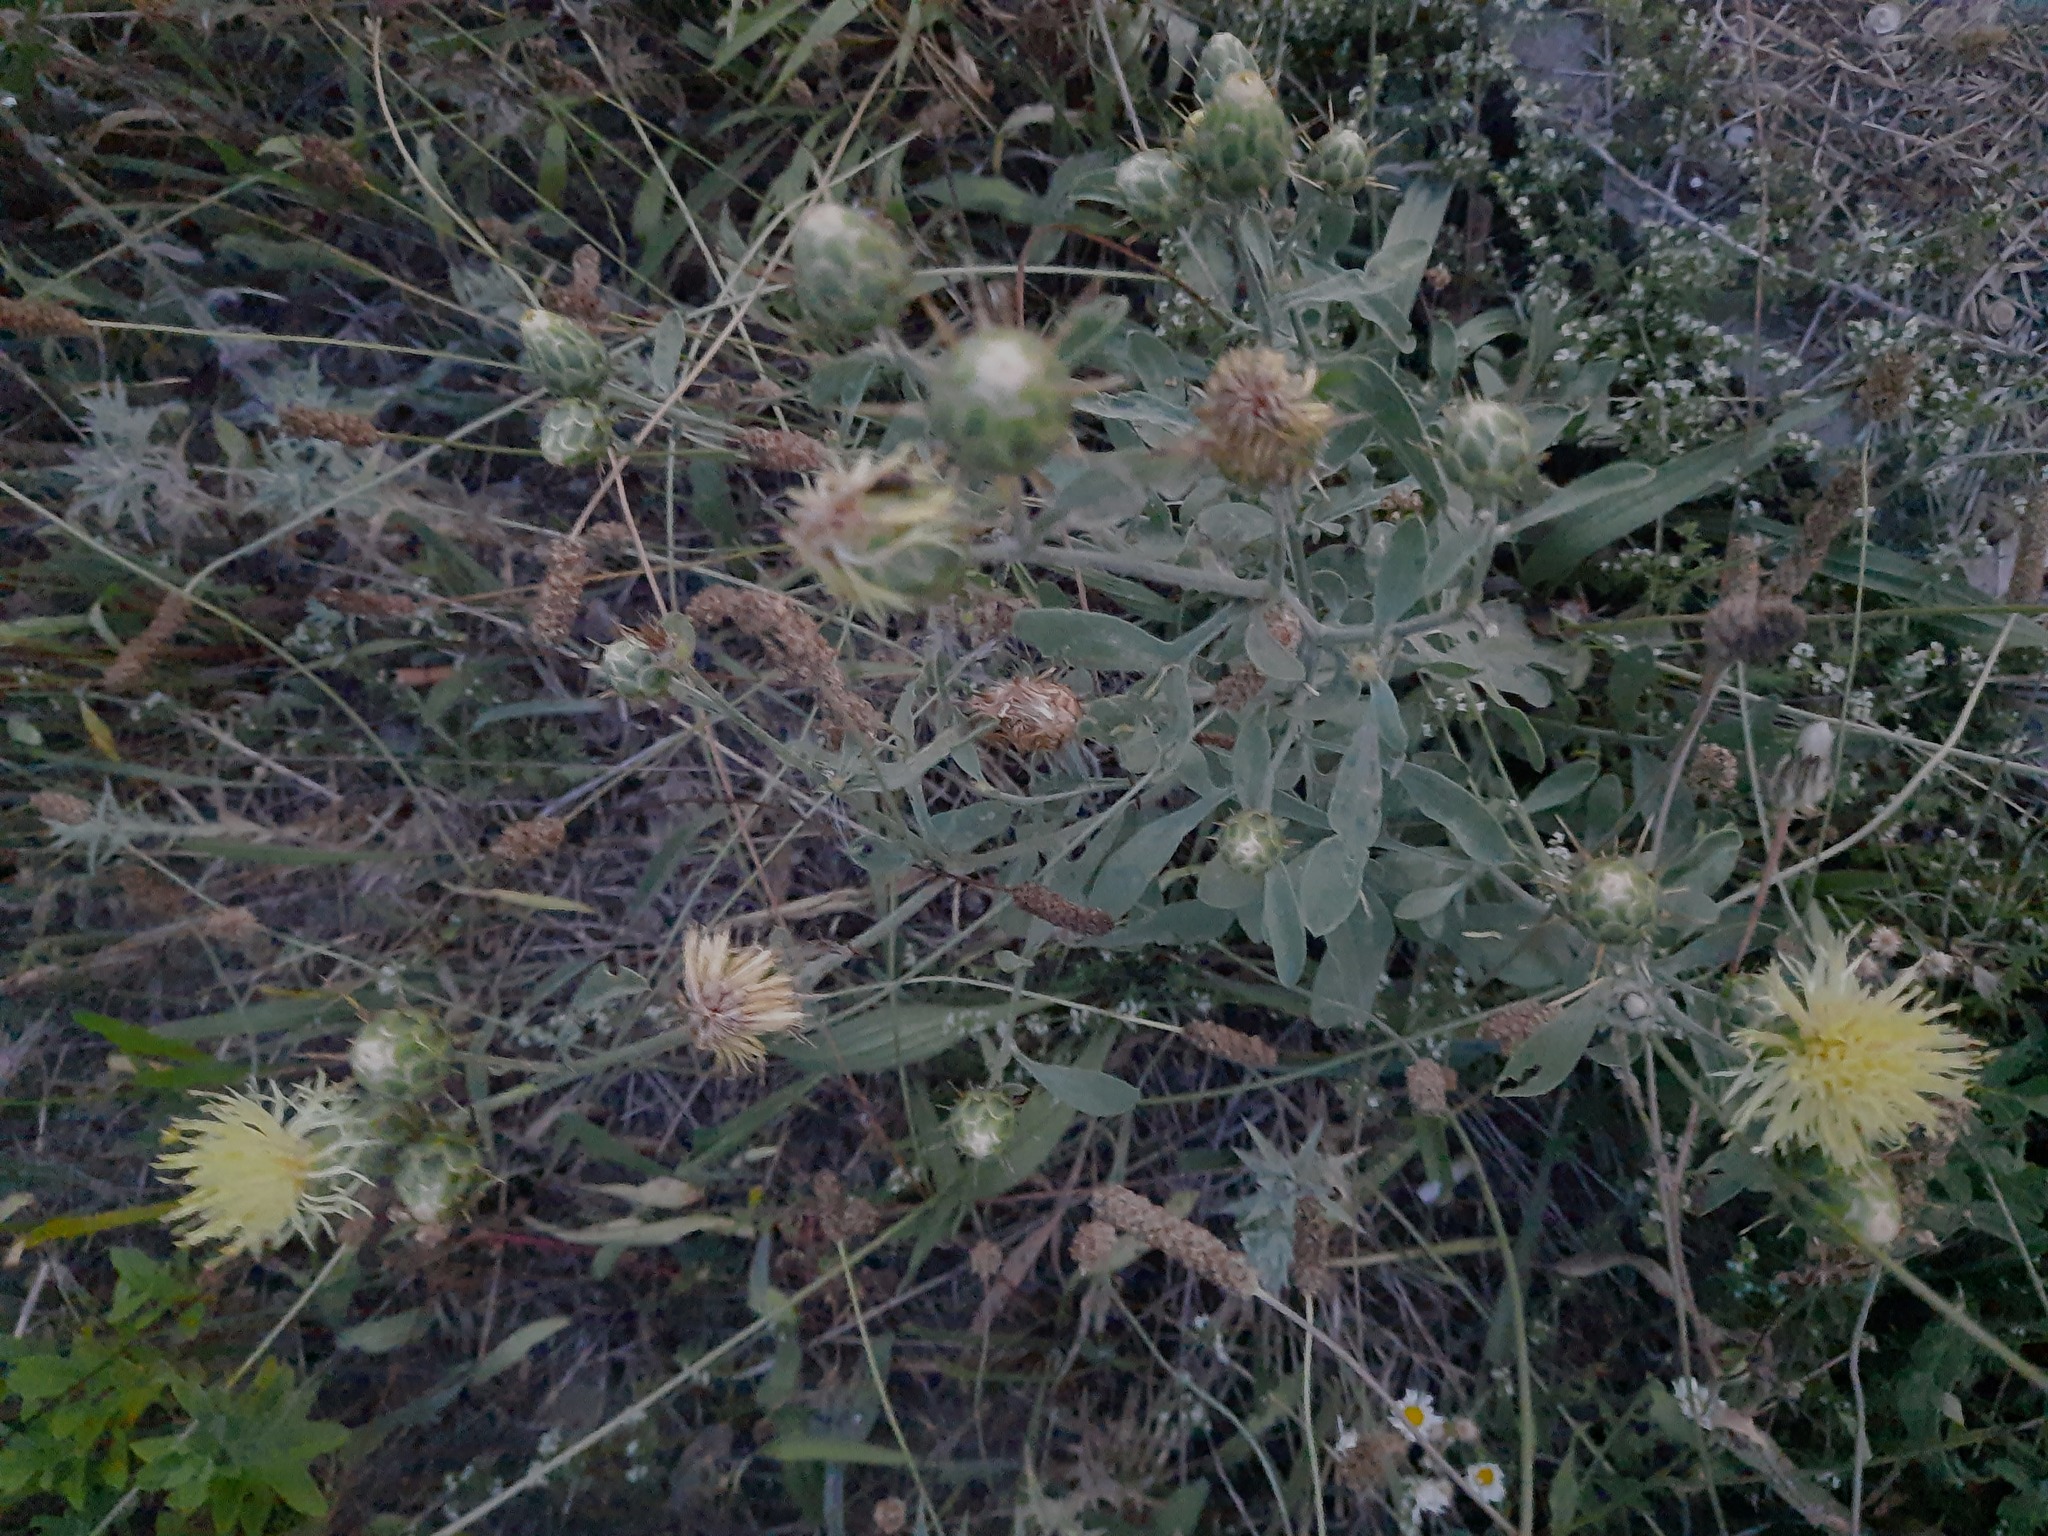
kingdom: Plantae
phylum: Tracheophyta
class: Magnoliopsida
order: Asterales
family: Asteraceae
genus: Centaurea
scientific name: Centaurea salonitana
